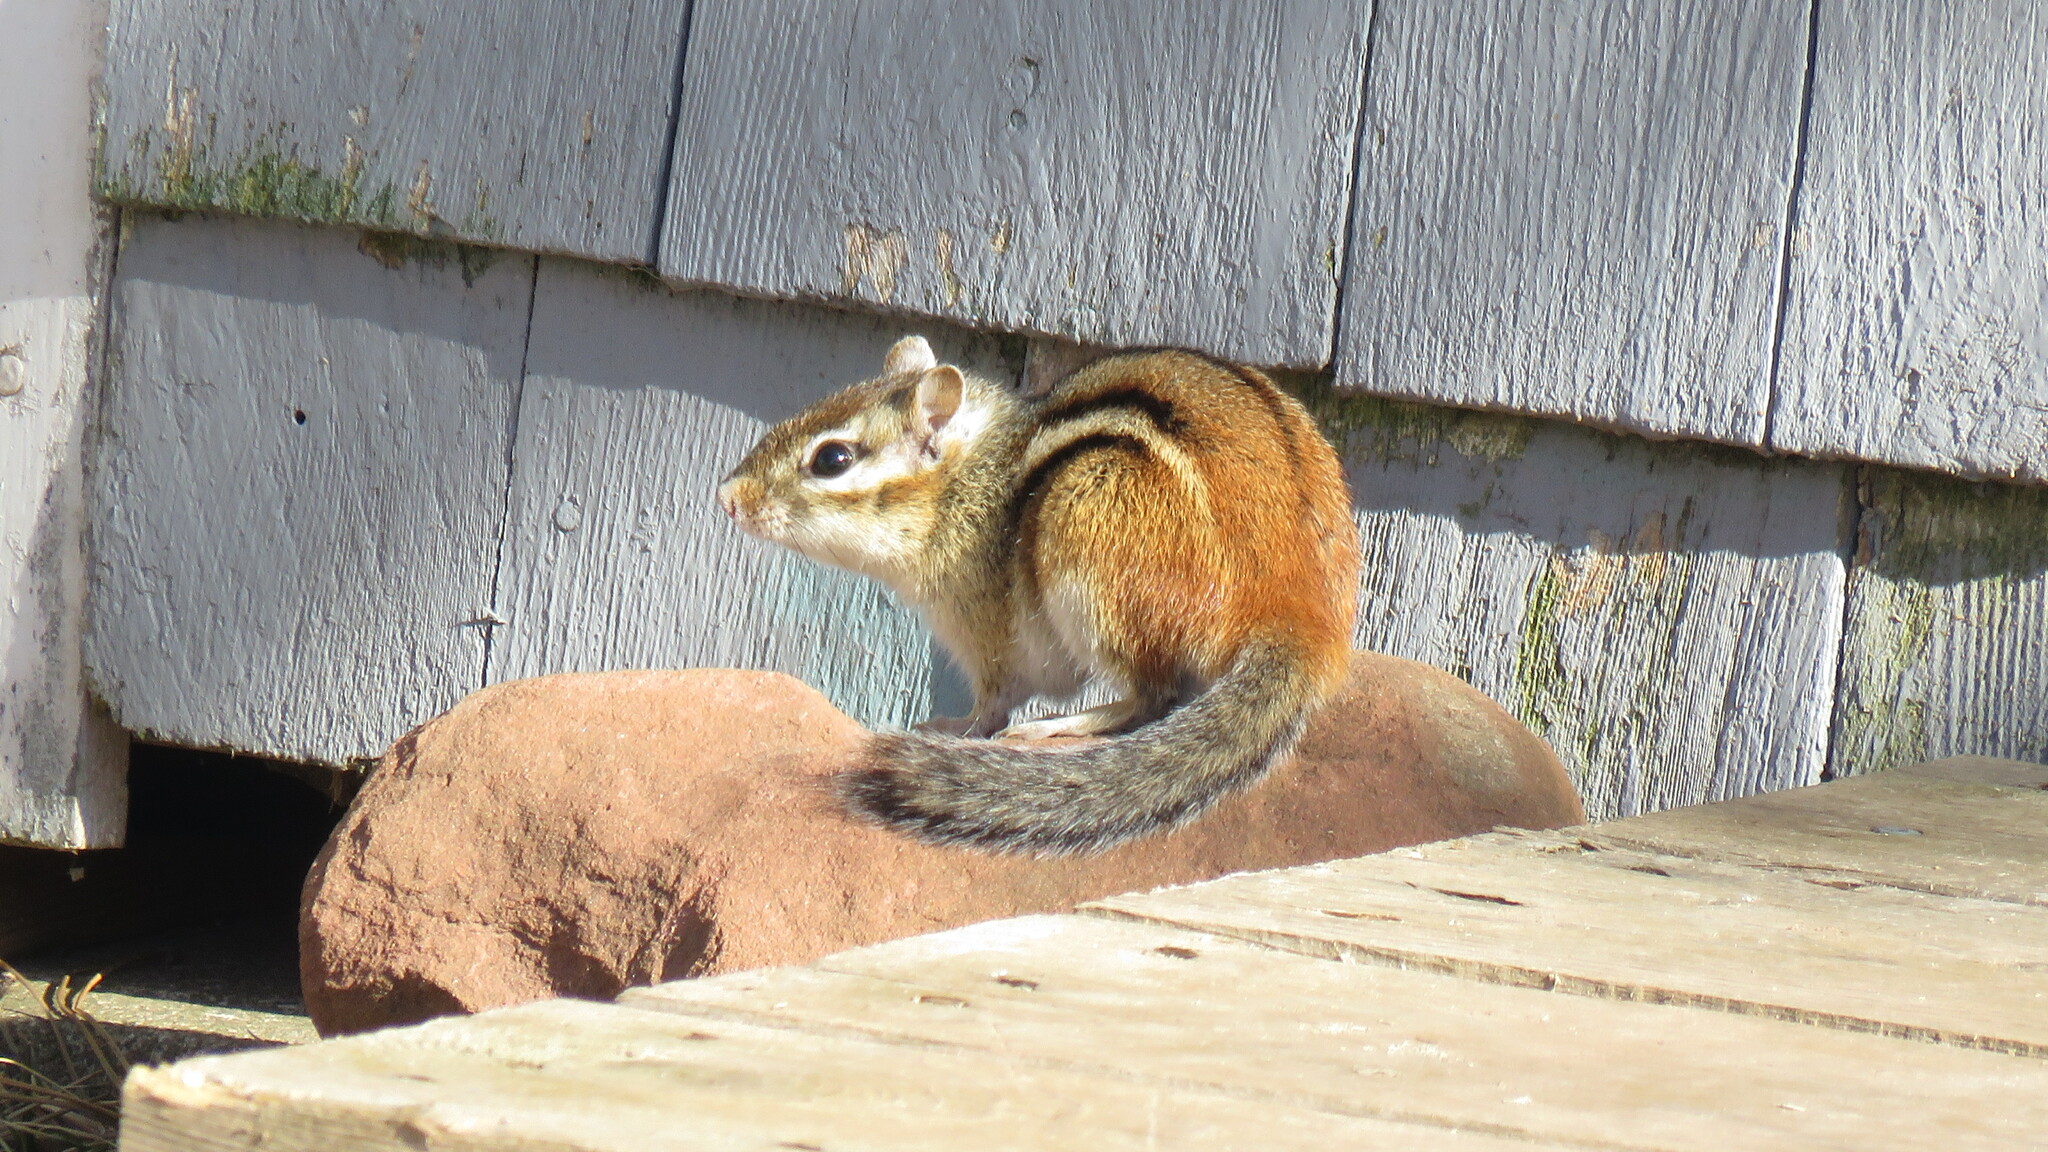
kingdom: Animalia
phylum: Chordata
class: Mammalia
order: Rodentia
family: Sciuridae
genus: Tamias
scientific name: Tamias striatus
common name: Eastern chipmunk
